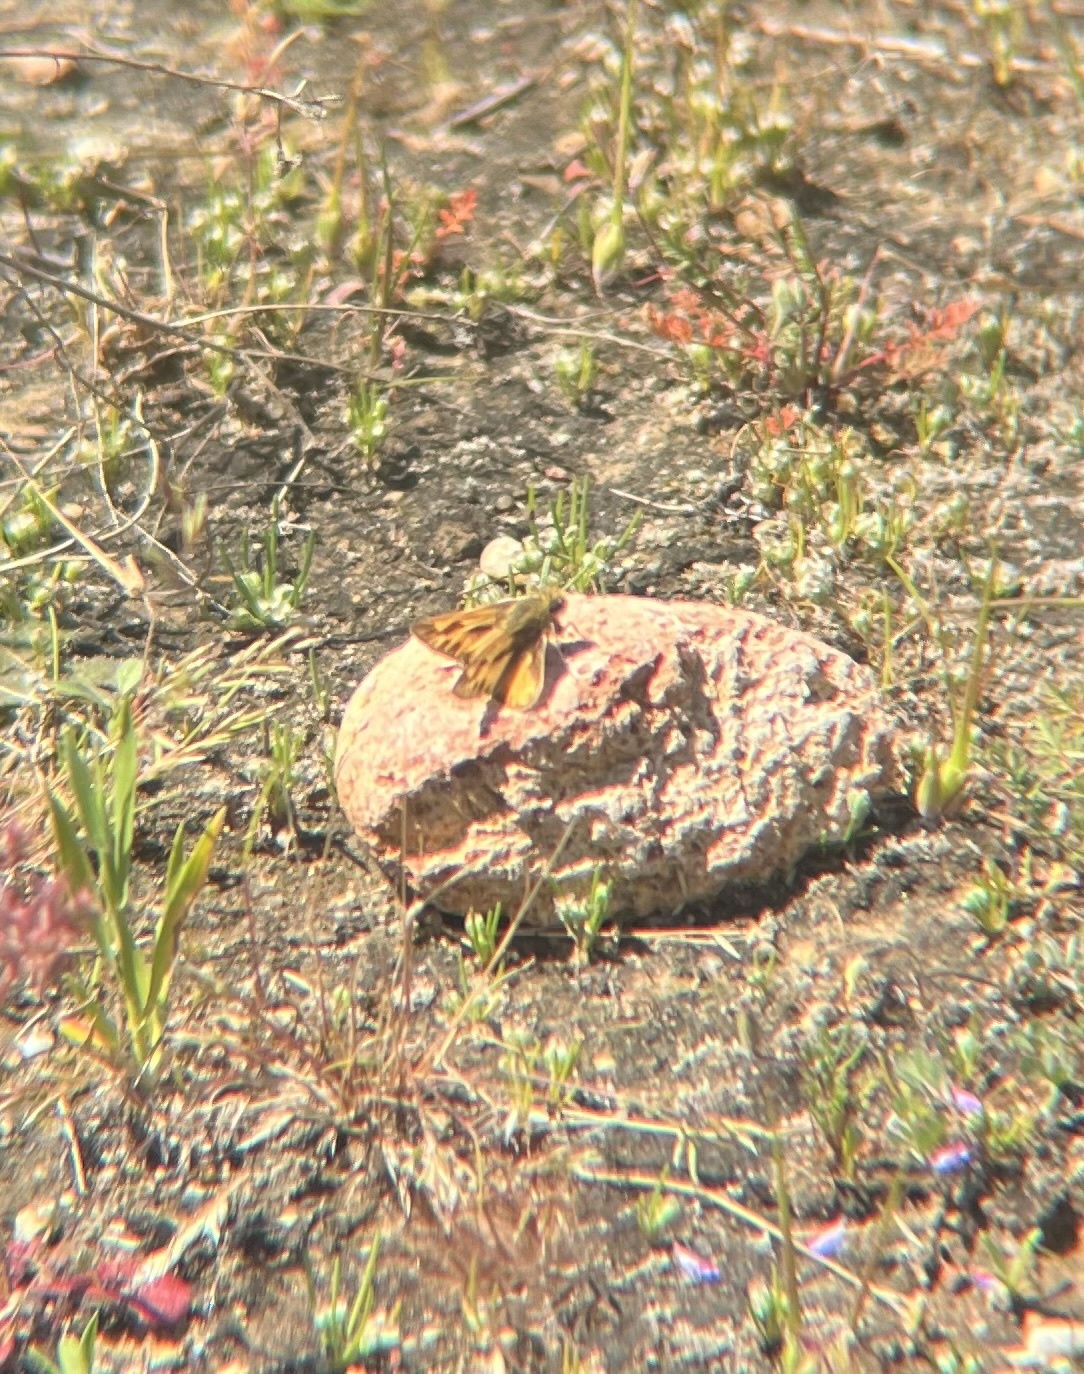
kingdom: Animalia
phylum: Arthropoda
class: Insecta
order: Lepidoptera
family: Hesperiidae
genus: Hylephila
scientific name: Hylephila phyleus
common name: Fiery skipper
